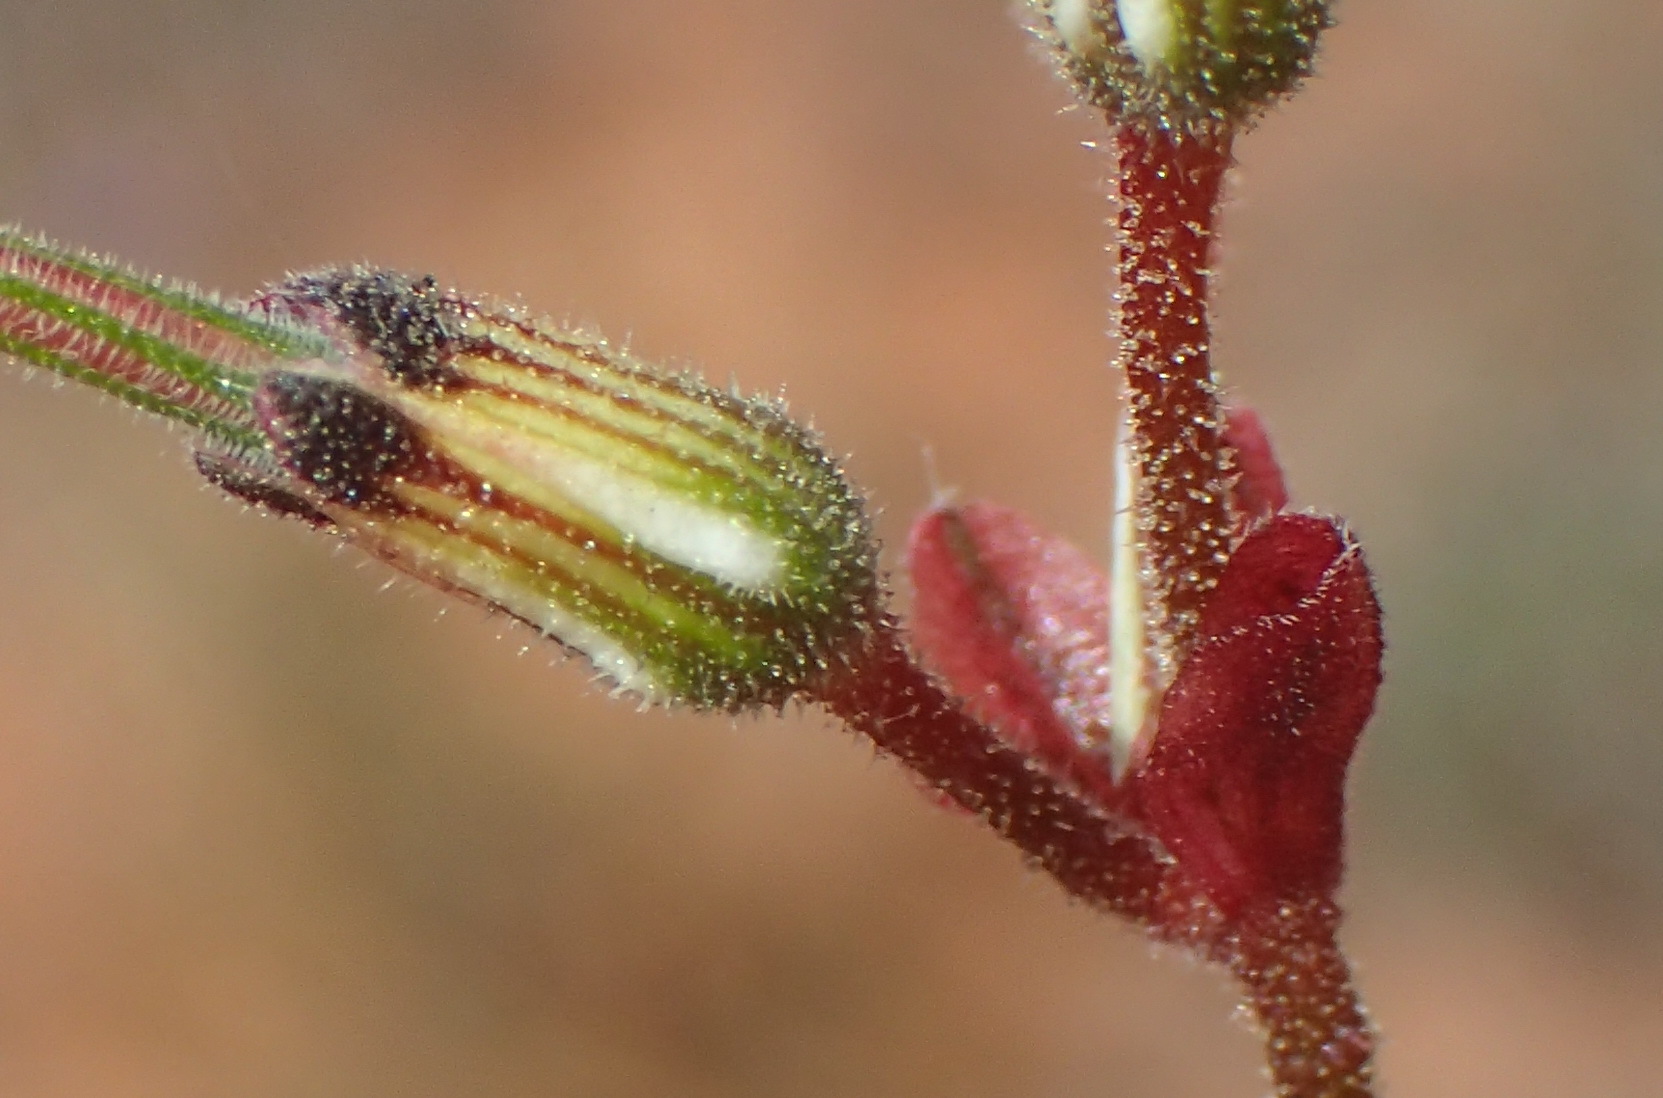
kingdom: Plantae
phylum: Tracheophyta
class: Magnoliopsida
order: Geraniales
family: Geraniaceae
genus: Pelargonium
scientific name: Pelargonium senecioides
